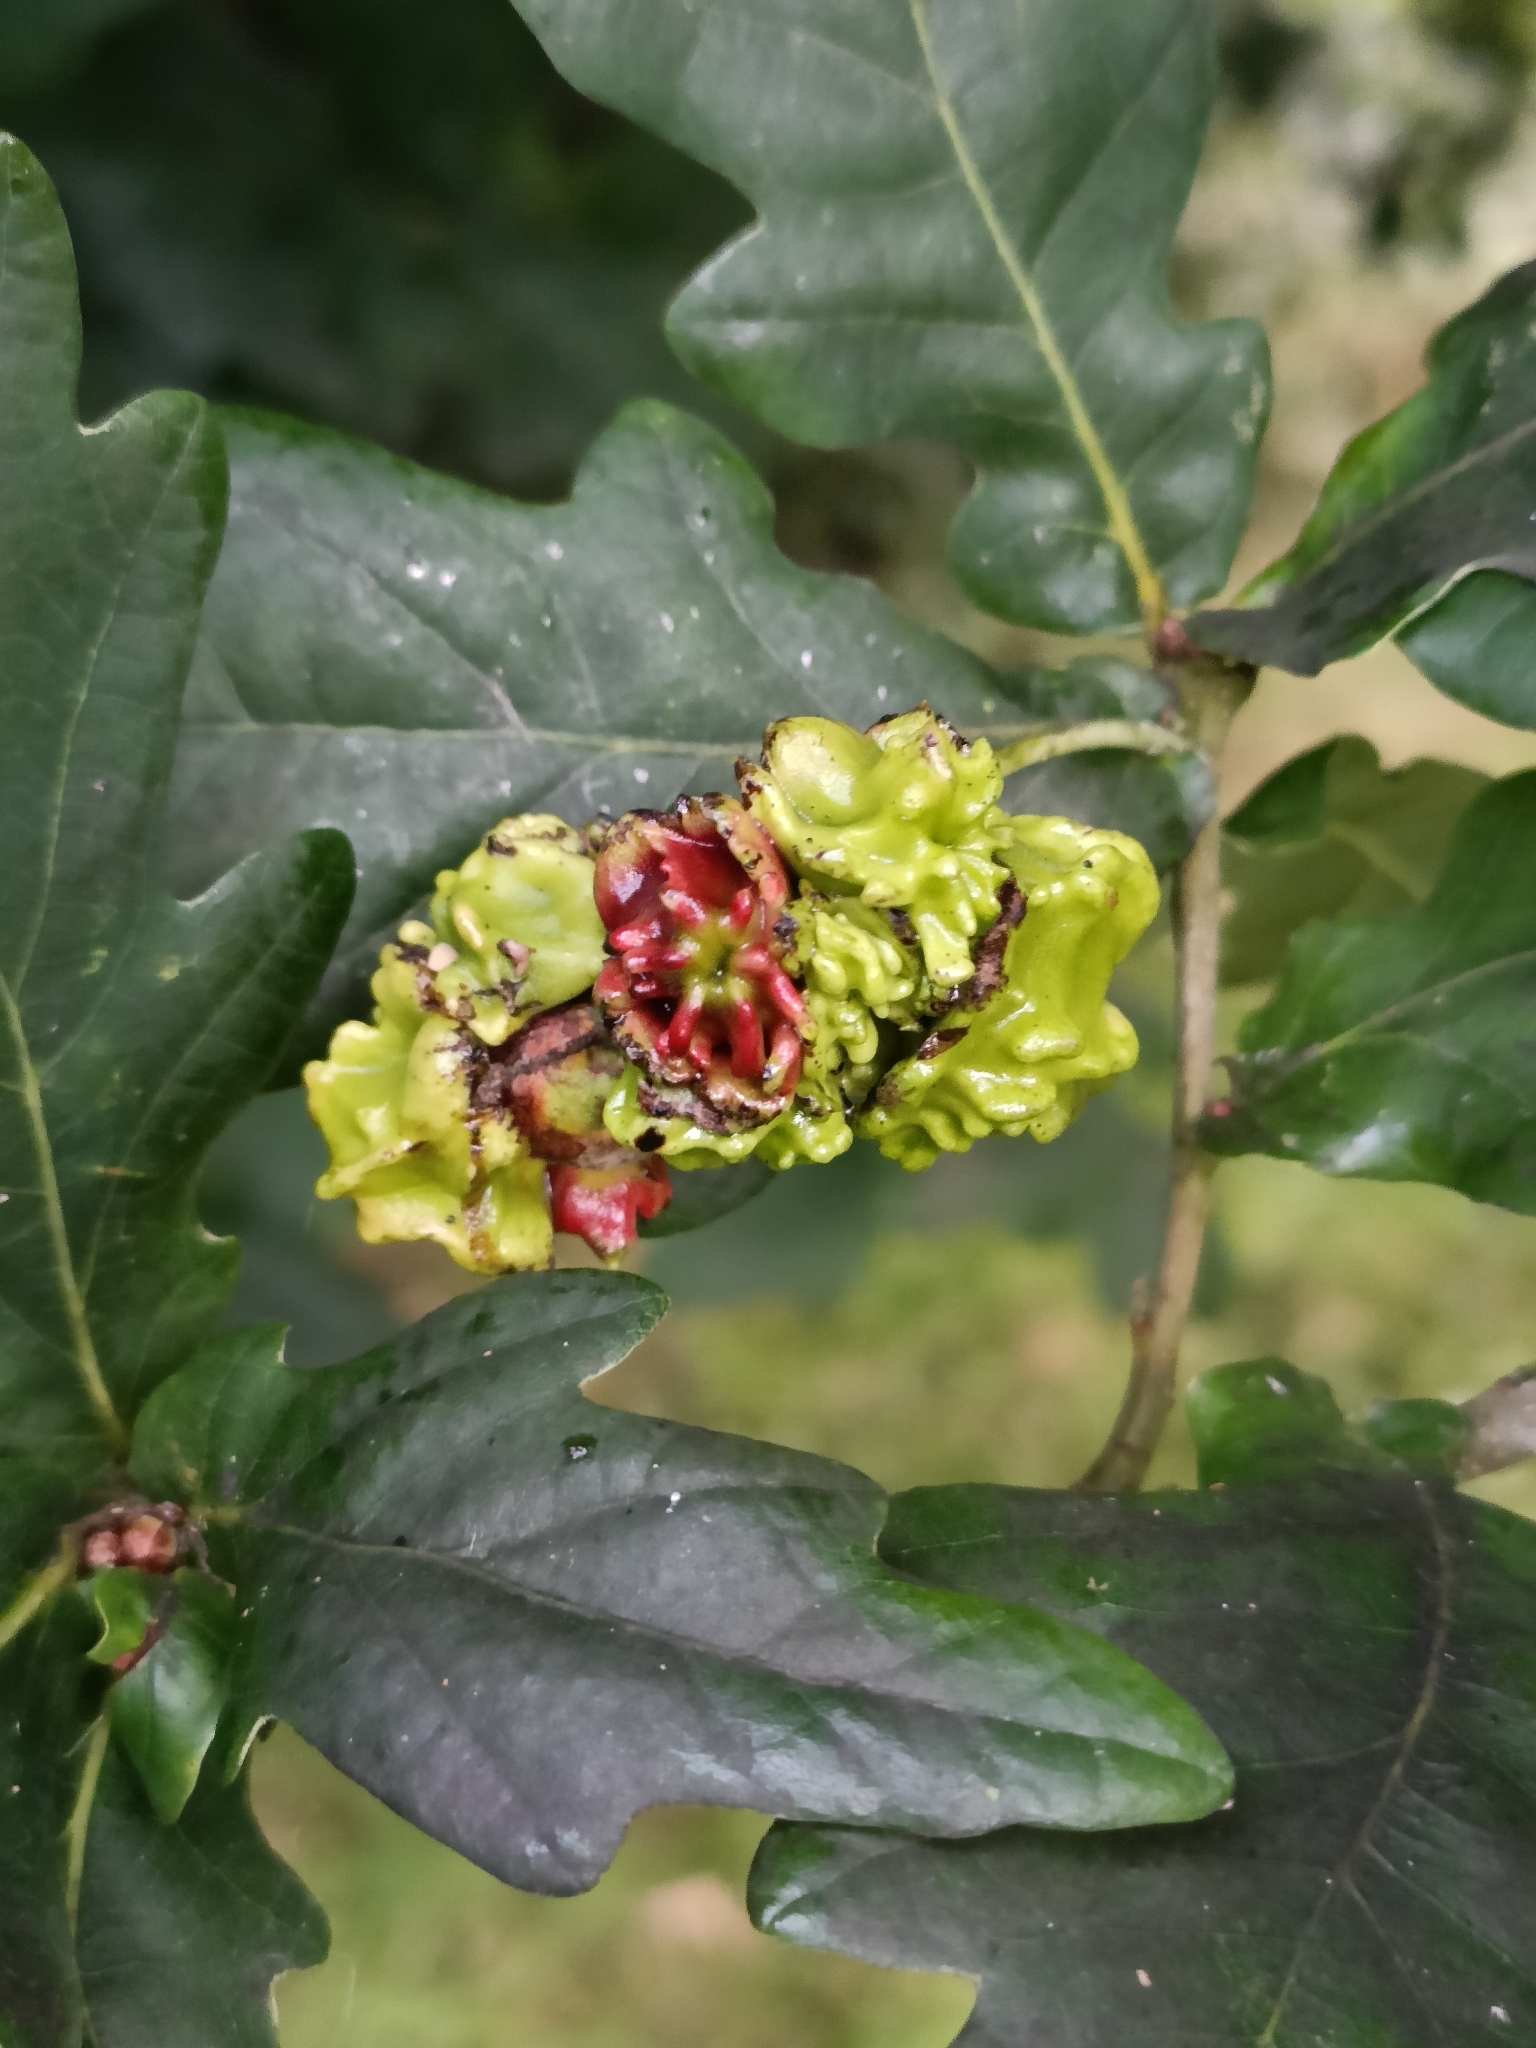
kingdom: Animalia
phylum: Arthropoda
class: Insecta
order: Hymenoptera
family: Cynipidae
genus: Andricus
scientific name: Andricus quercuscalicis
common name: Knopper gall
